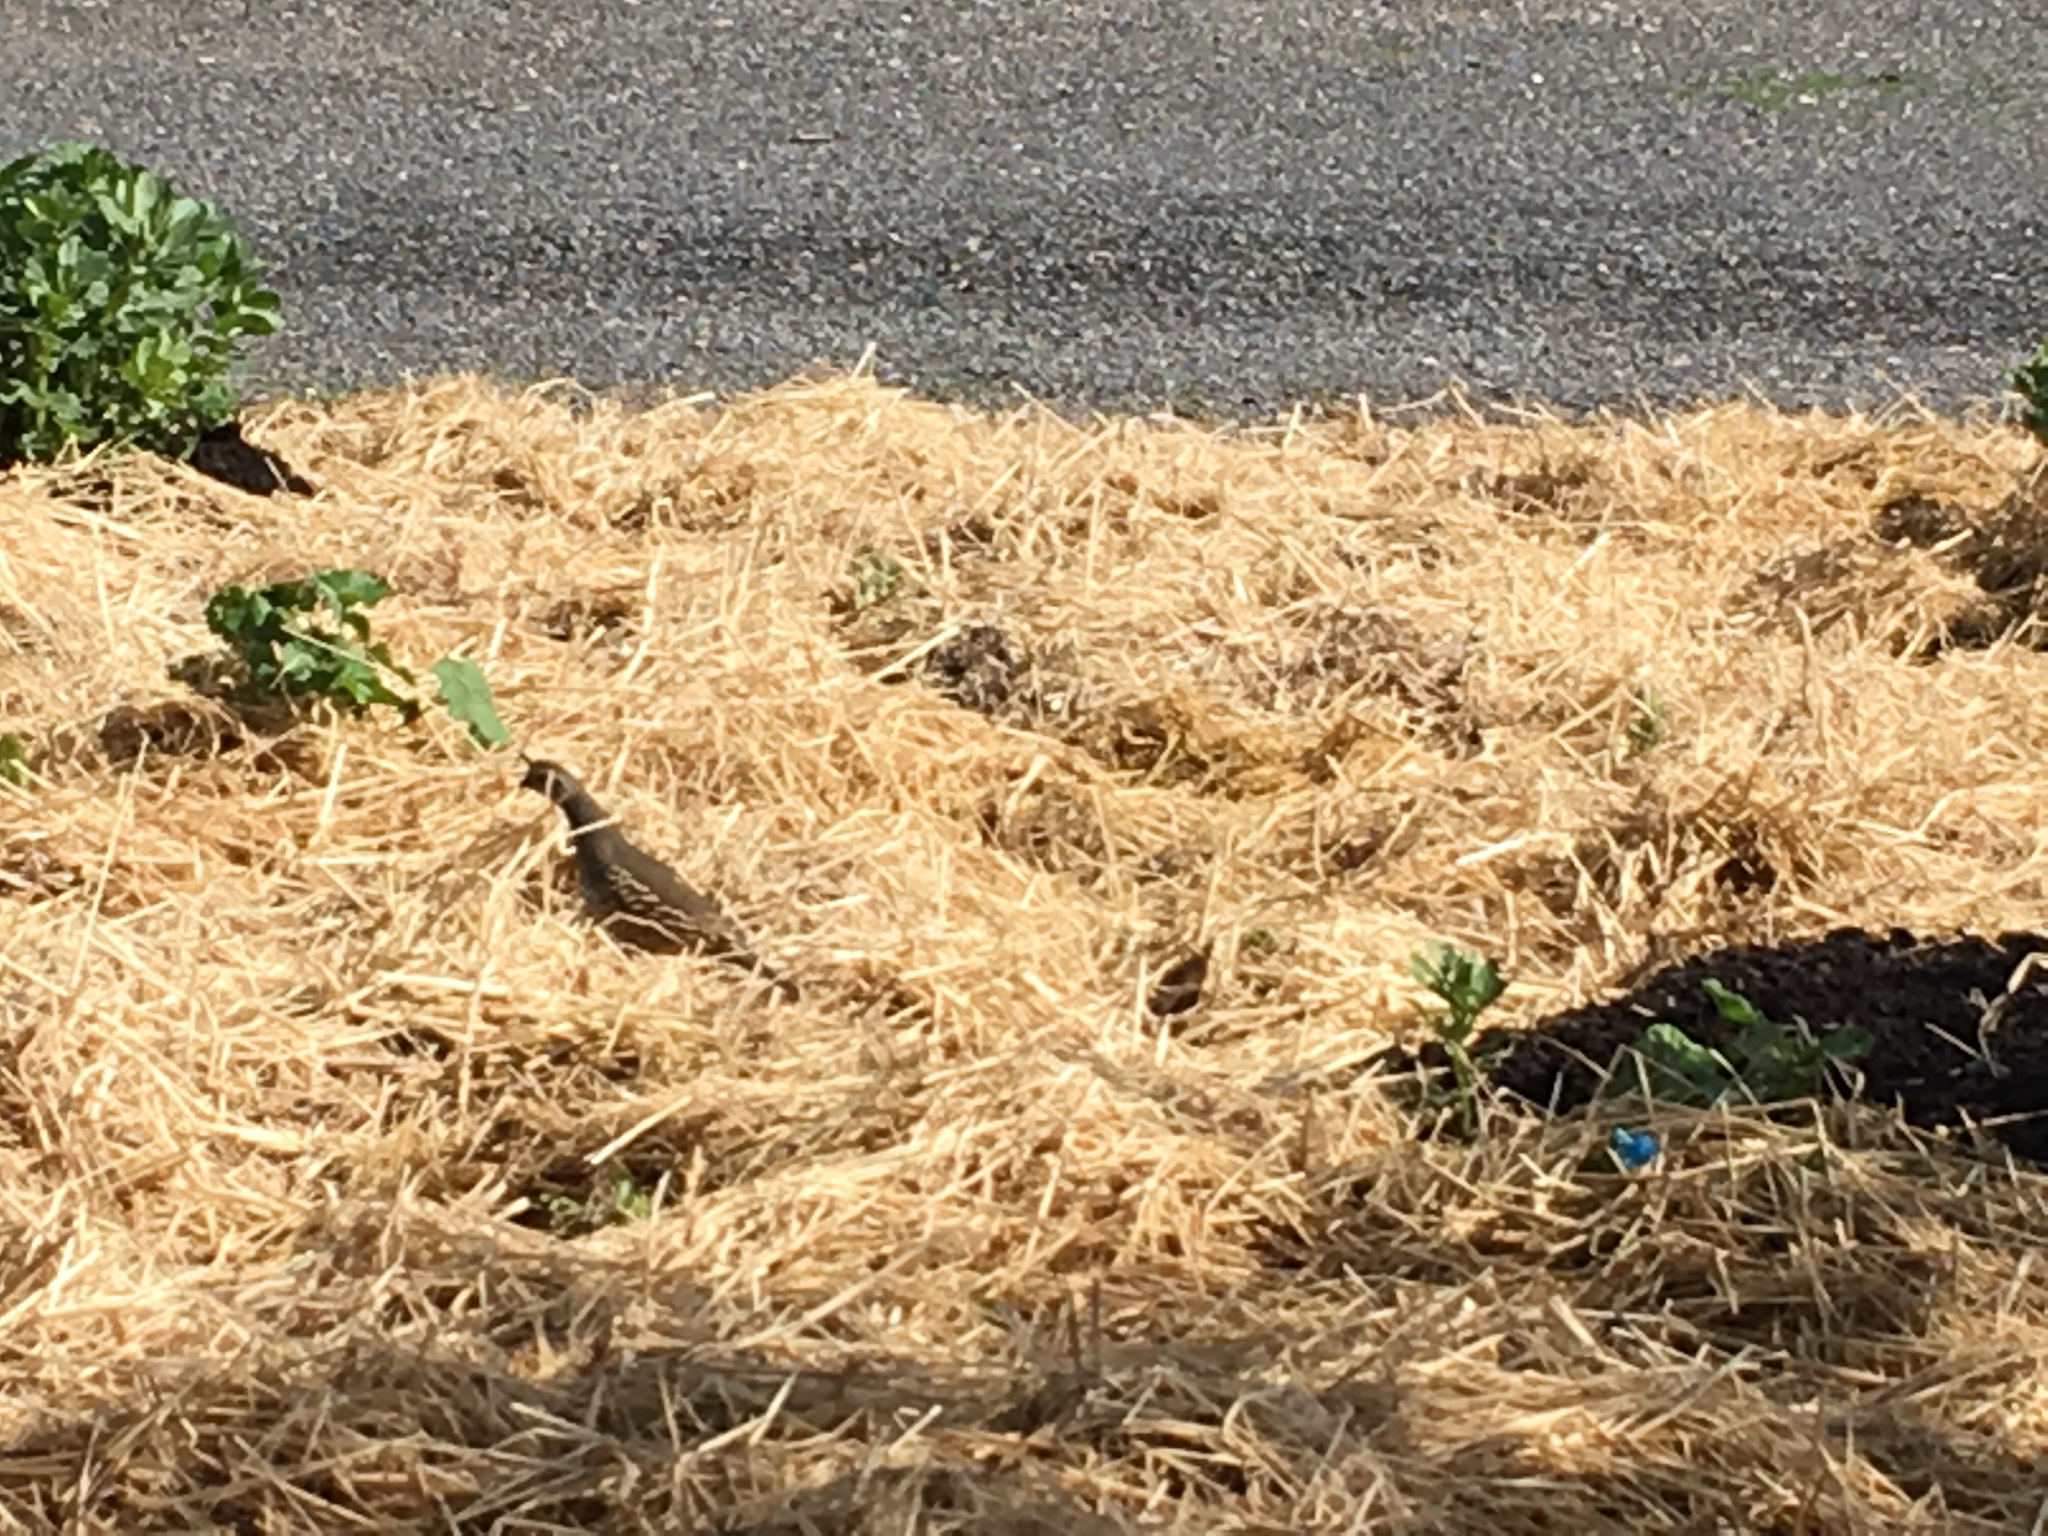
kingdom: Animalia
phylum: Chordata
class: Aves
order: Galliformes
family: Odontophoridae
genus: Callipepla
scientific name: Callipepla californica
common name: California quail
